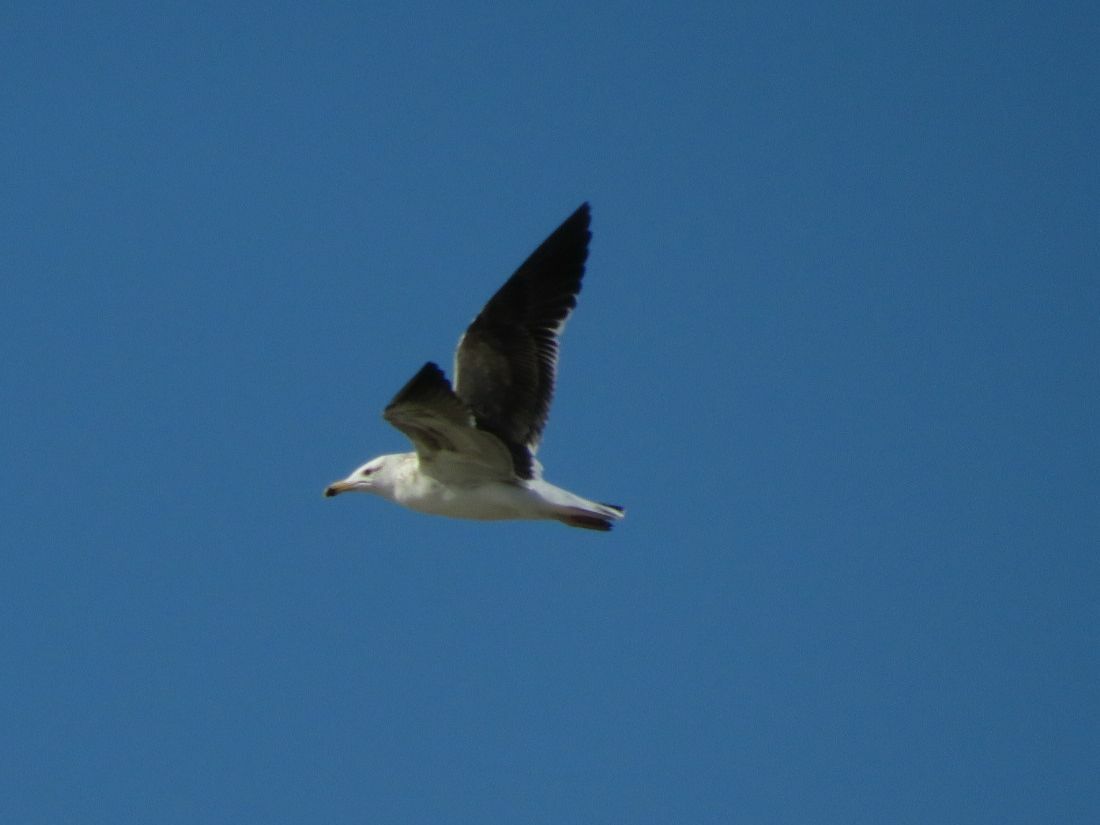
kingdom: Animalia
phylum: Chordata
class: Aves
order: Charadriiformes
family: Laridae
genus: Larus
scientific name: Larus dominicanus
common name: Kelp gull
